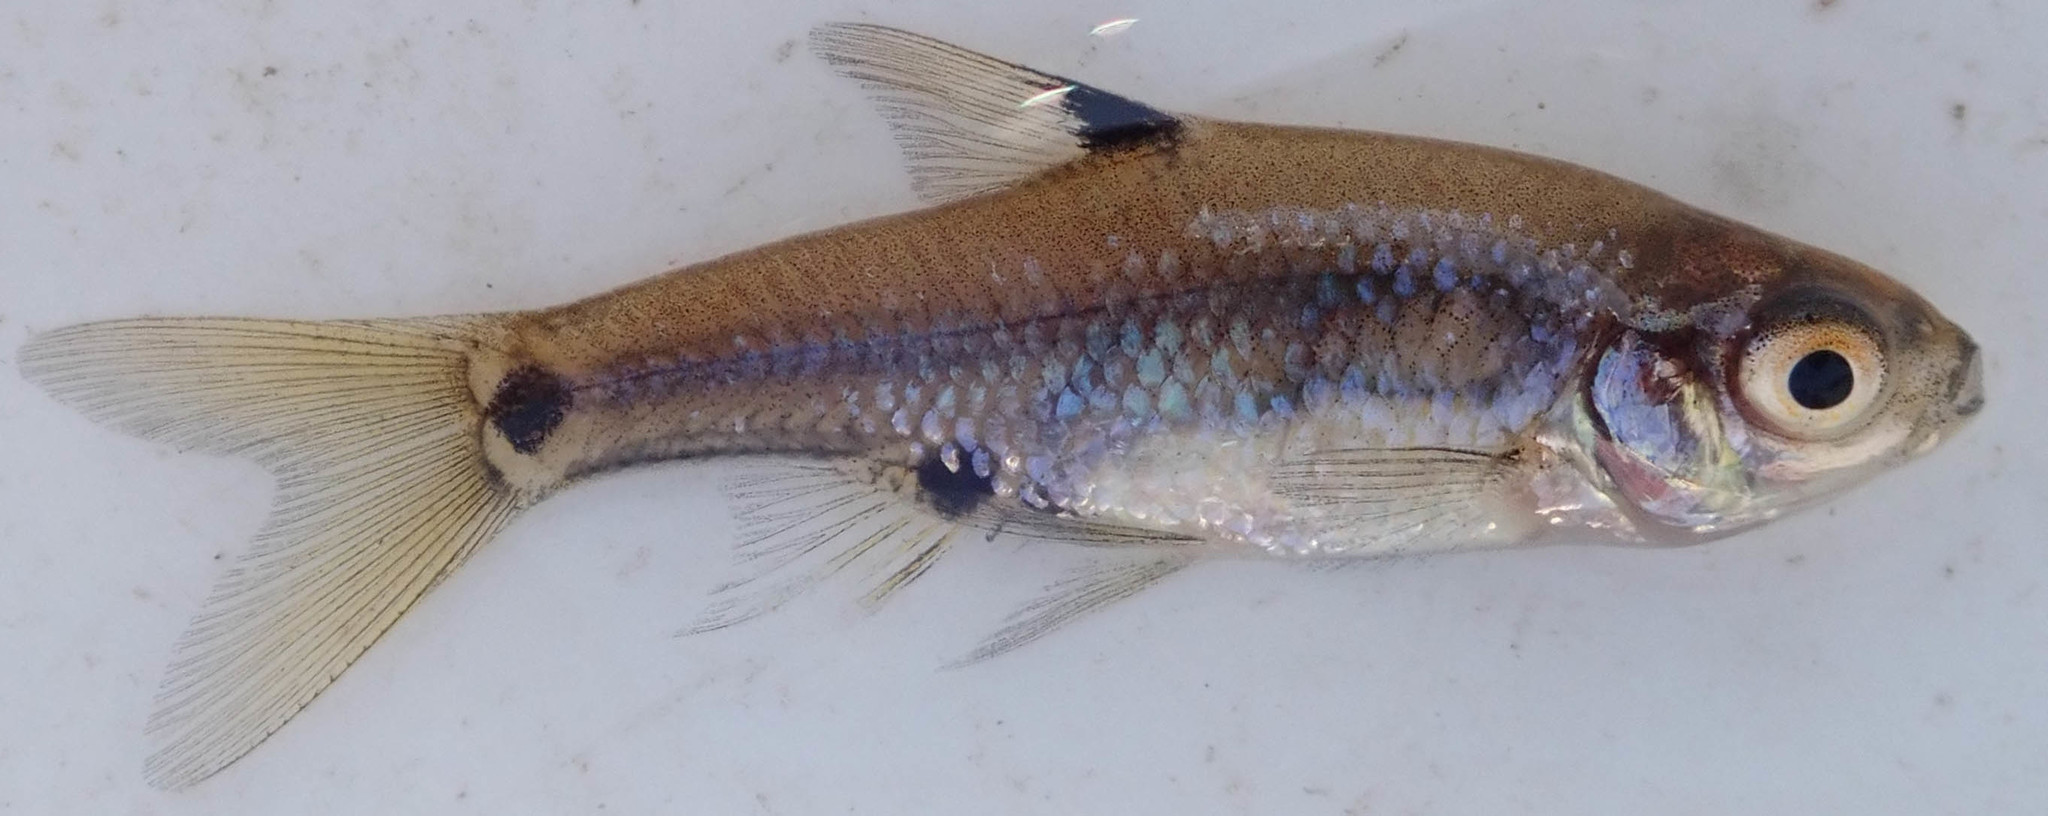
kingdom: Animalia
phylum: Chordata
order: Cypriniformes
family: Cyprinidae
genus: Enteromius
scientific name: Enteromius haasianus
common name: Sickle-fin barb
